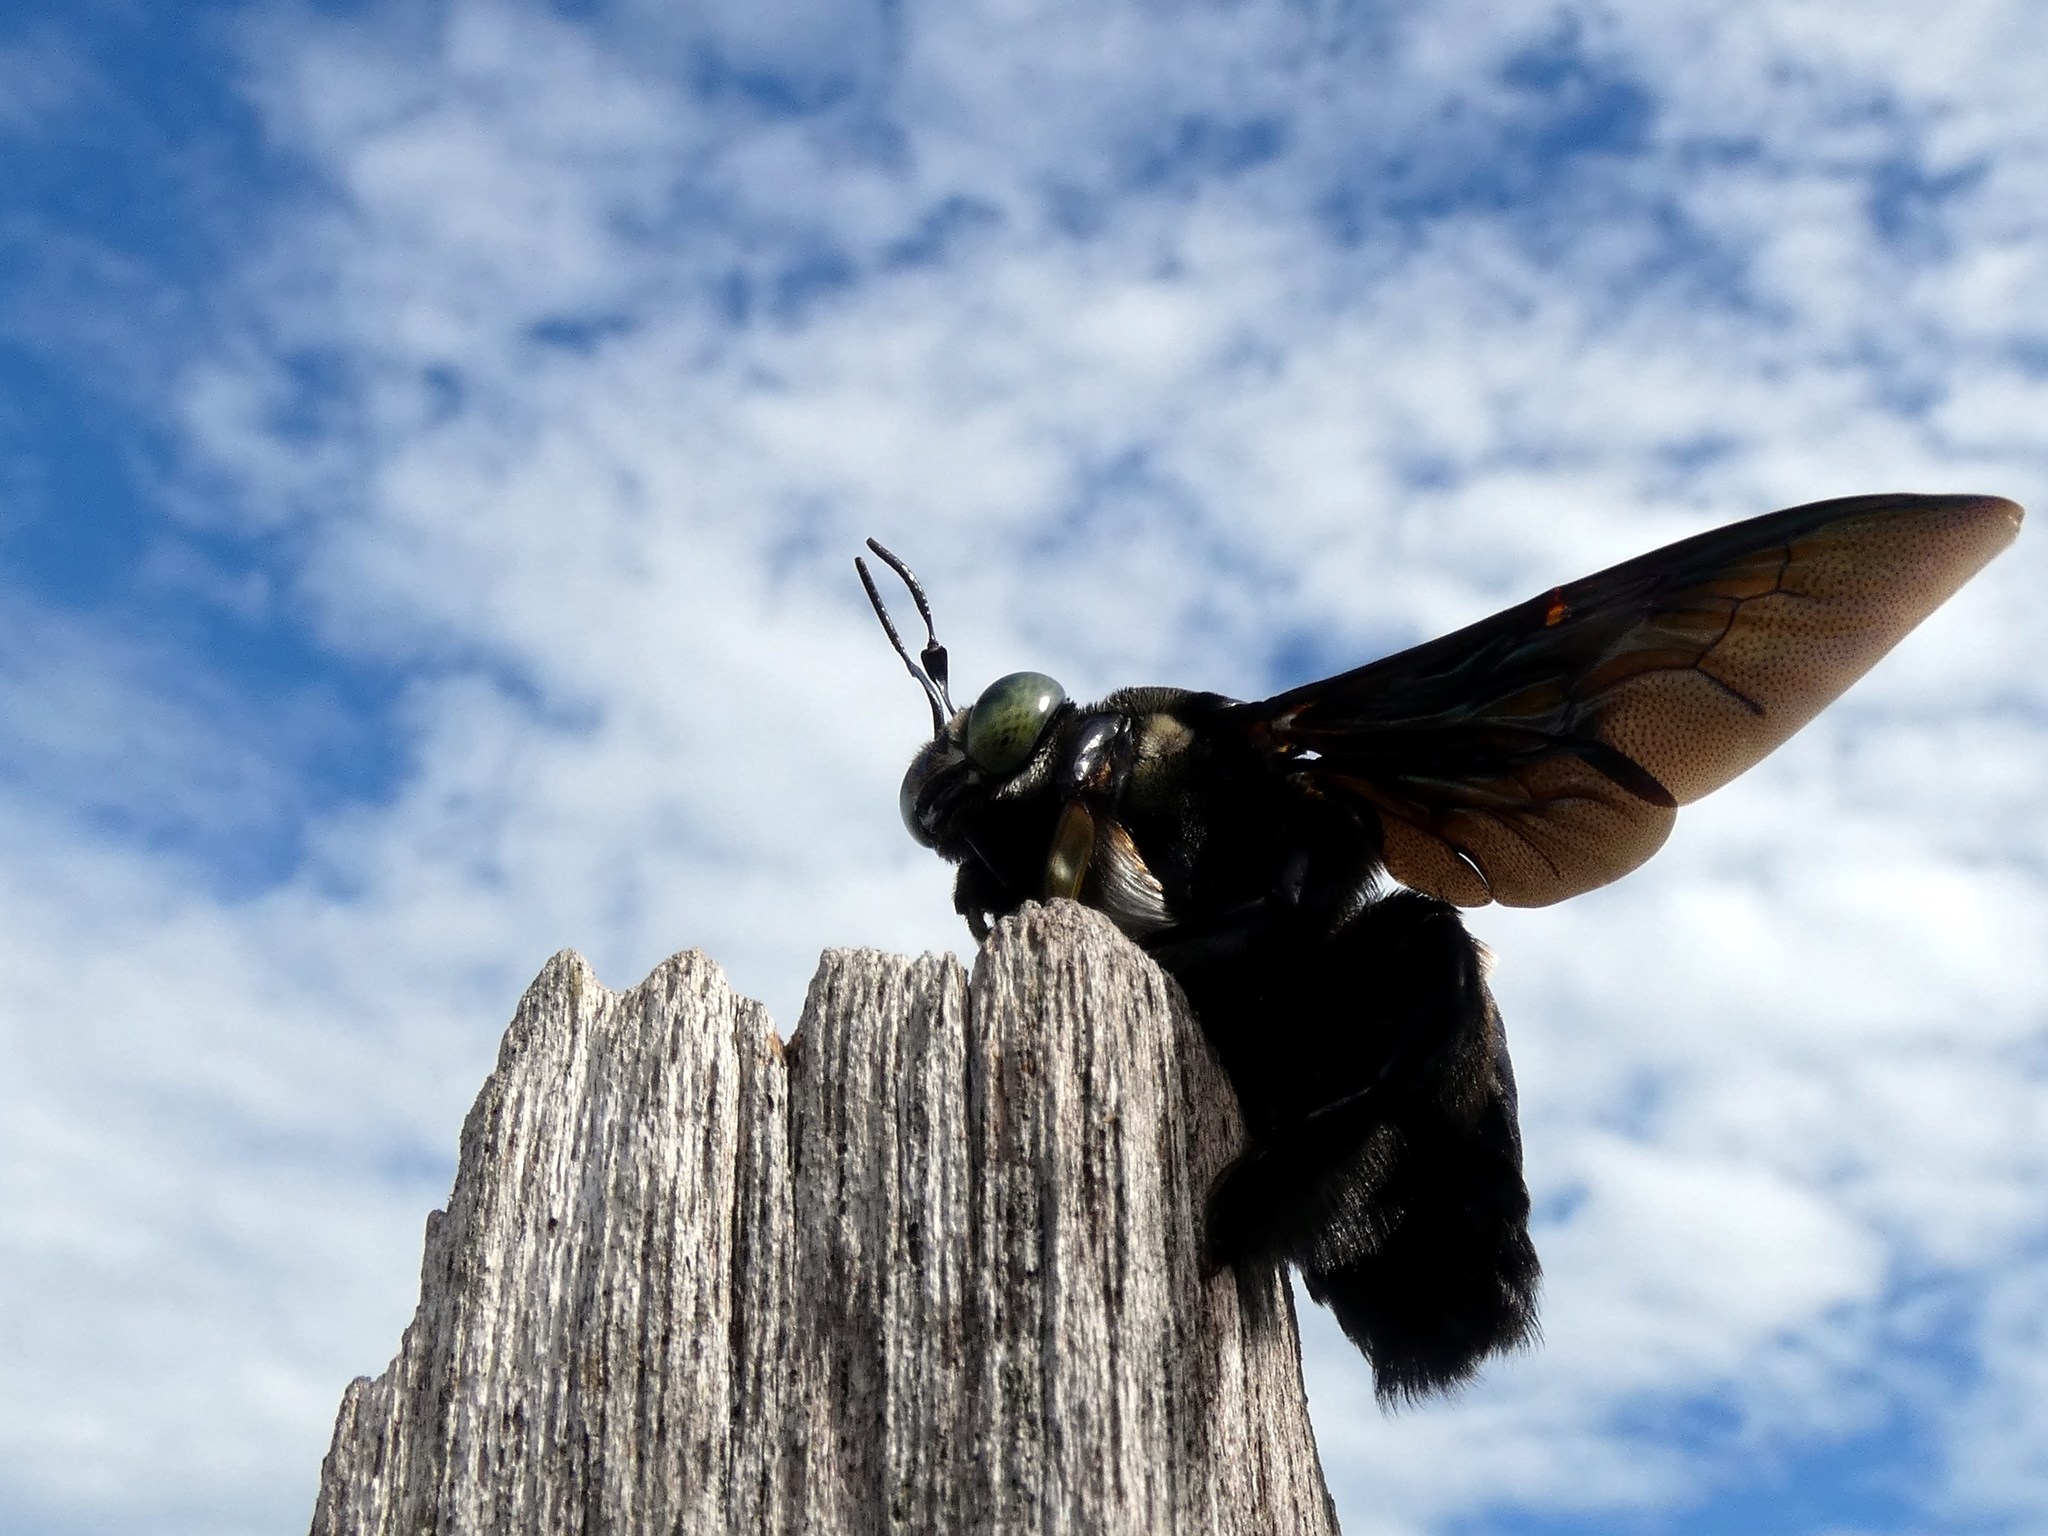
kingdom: Animalia
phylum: Arthropoda
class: Insecta
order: Hymenoptera
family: Apidae
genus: Xylocopa
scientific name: Xylocopa latipes
